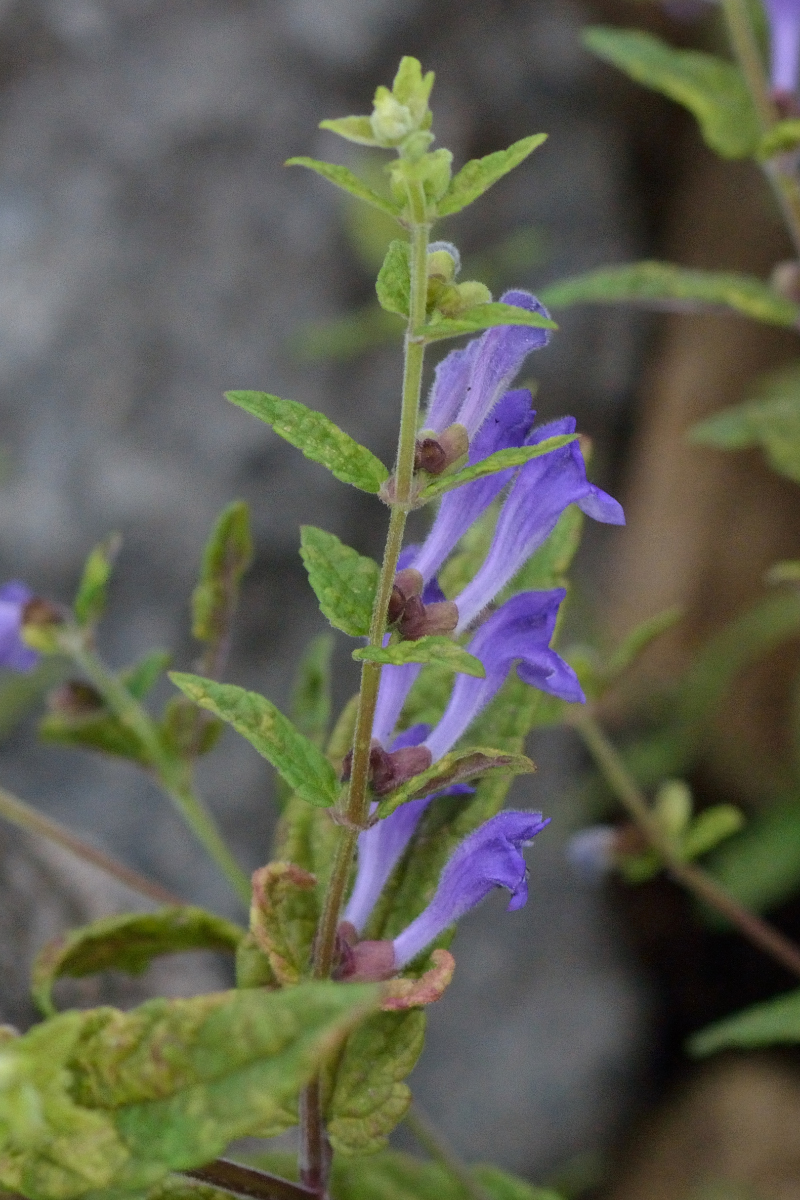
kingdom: Plantae
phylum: Tracheophyta
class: Magnoliopsida
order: Lamiales
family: Lamiaceae
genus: Scutellaria
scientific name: Scutellaria galericulata
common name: Skullcap
